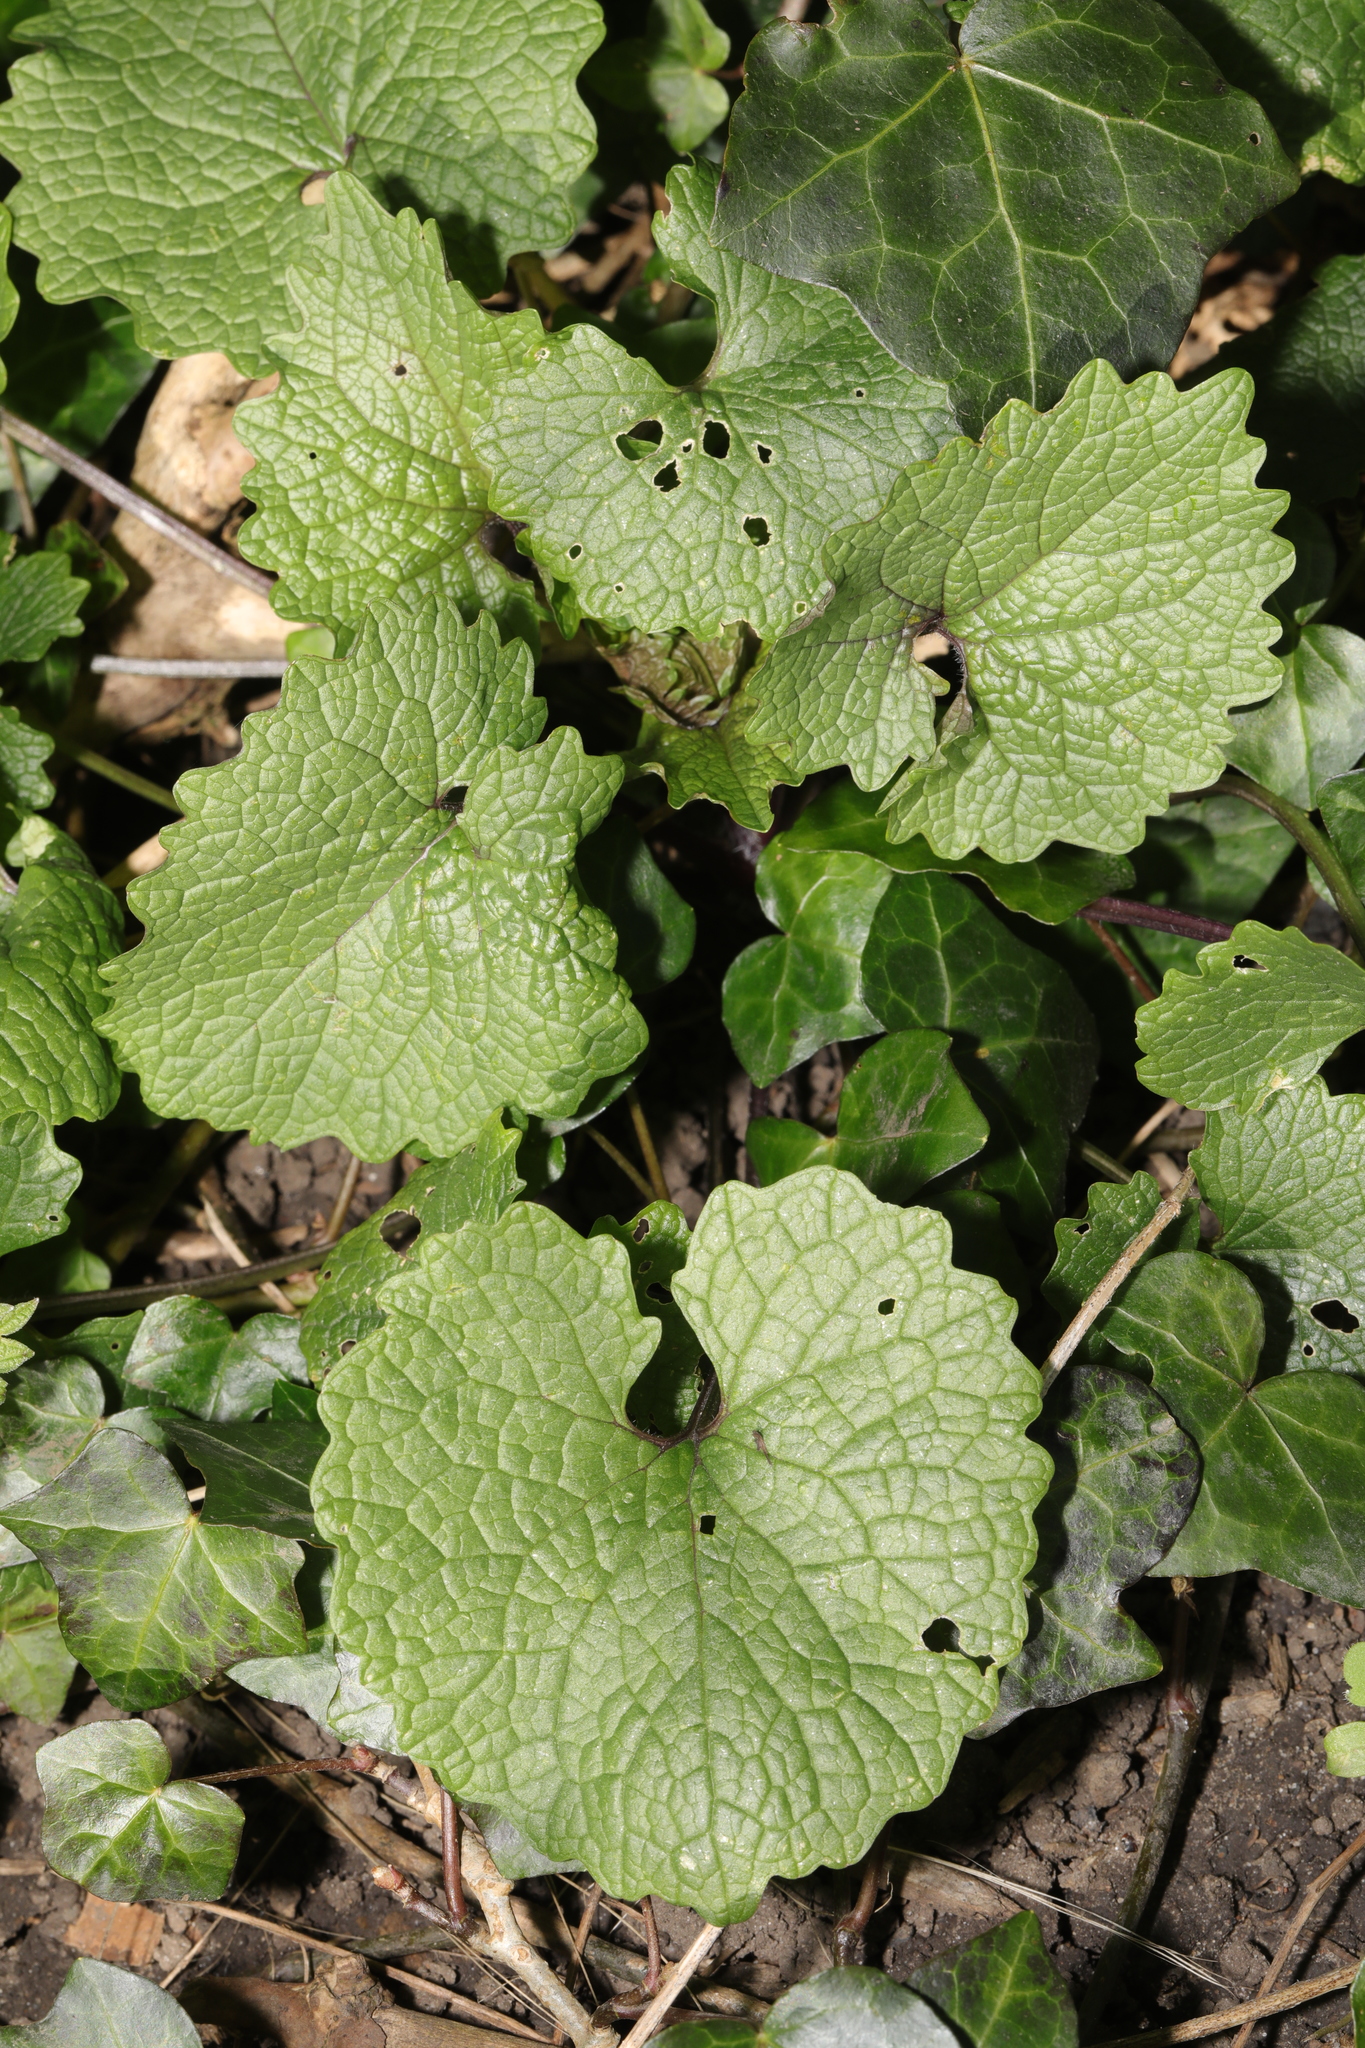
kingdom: Plantae
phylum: Tracheophyta
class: Magnoliopsida
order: Brassicales
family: Brassicaceae
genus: Alliaria
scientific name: Alliaria petiolata
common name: Garlic mustard
